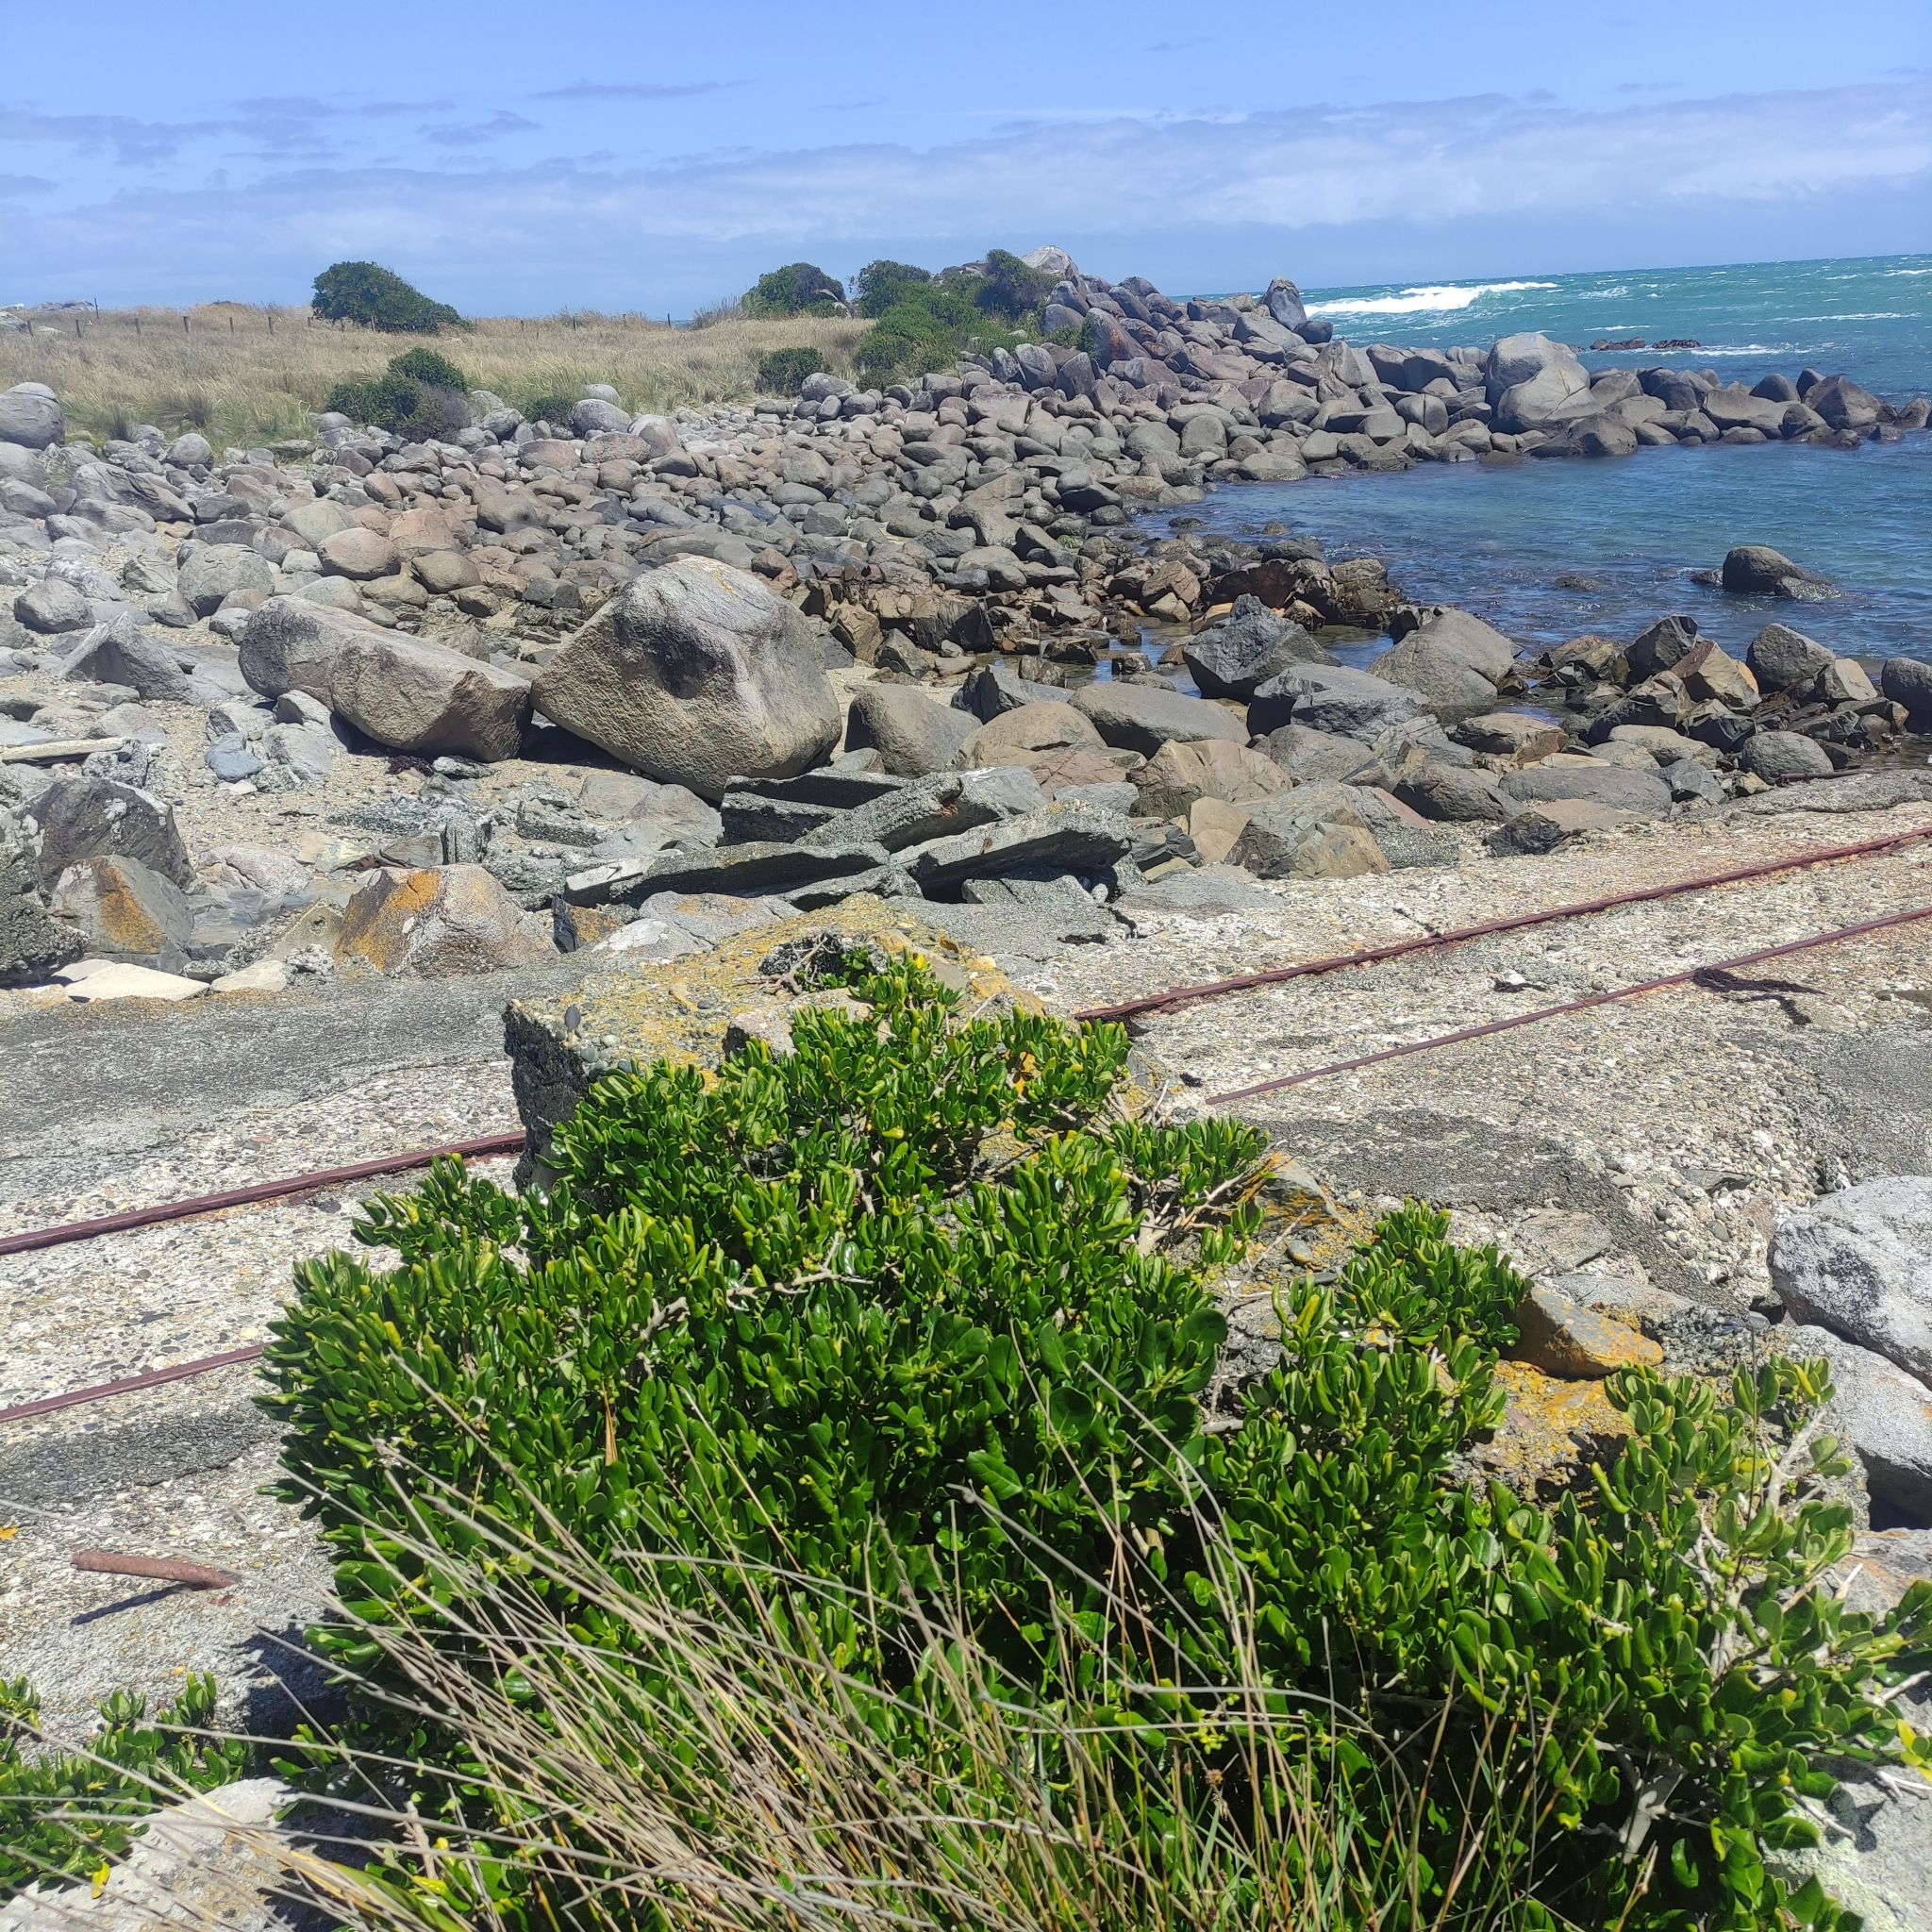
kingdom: Plantae
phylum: Tracheophyta
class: Magnoliopsida
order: Gentianales
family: Rubiaceae
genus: Coprosma
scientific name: Coprosma repens
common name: Tree bedstraw
